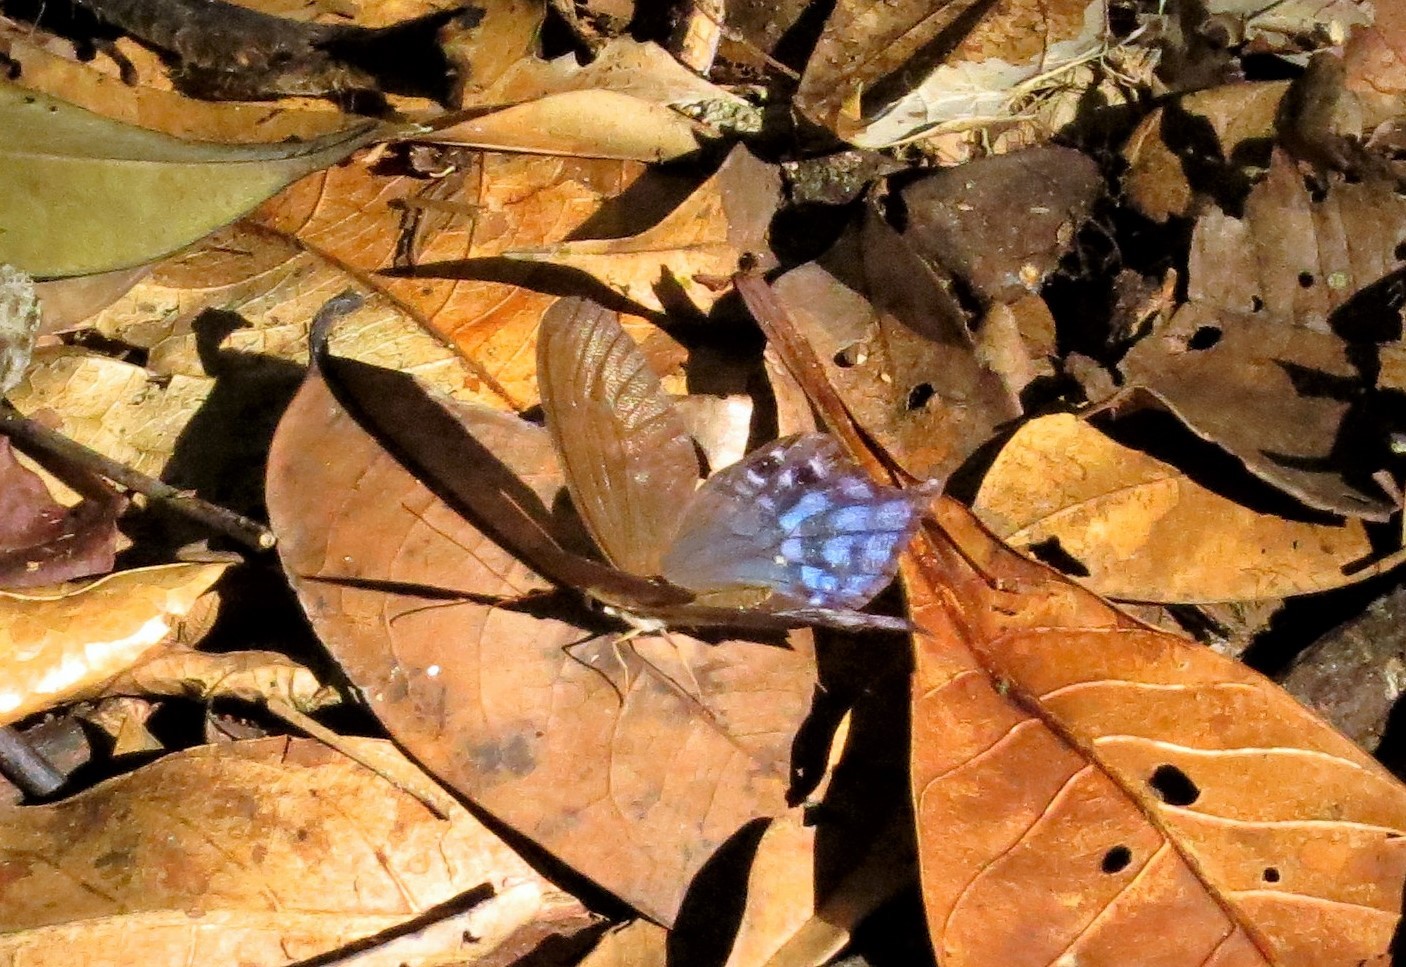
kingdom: Animalia
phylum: Arthropoda
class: Insecta
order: Lepidoptera
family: Nymphalidae
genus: Pierella
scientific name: Pierella dracontis
